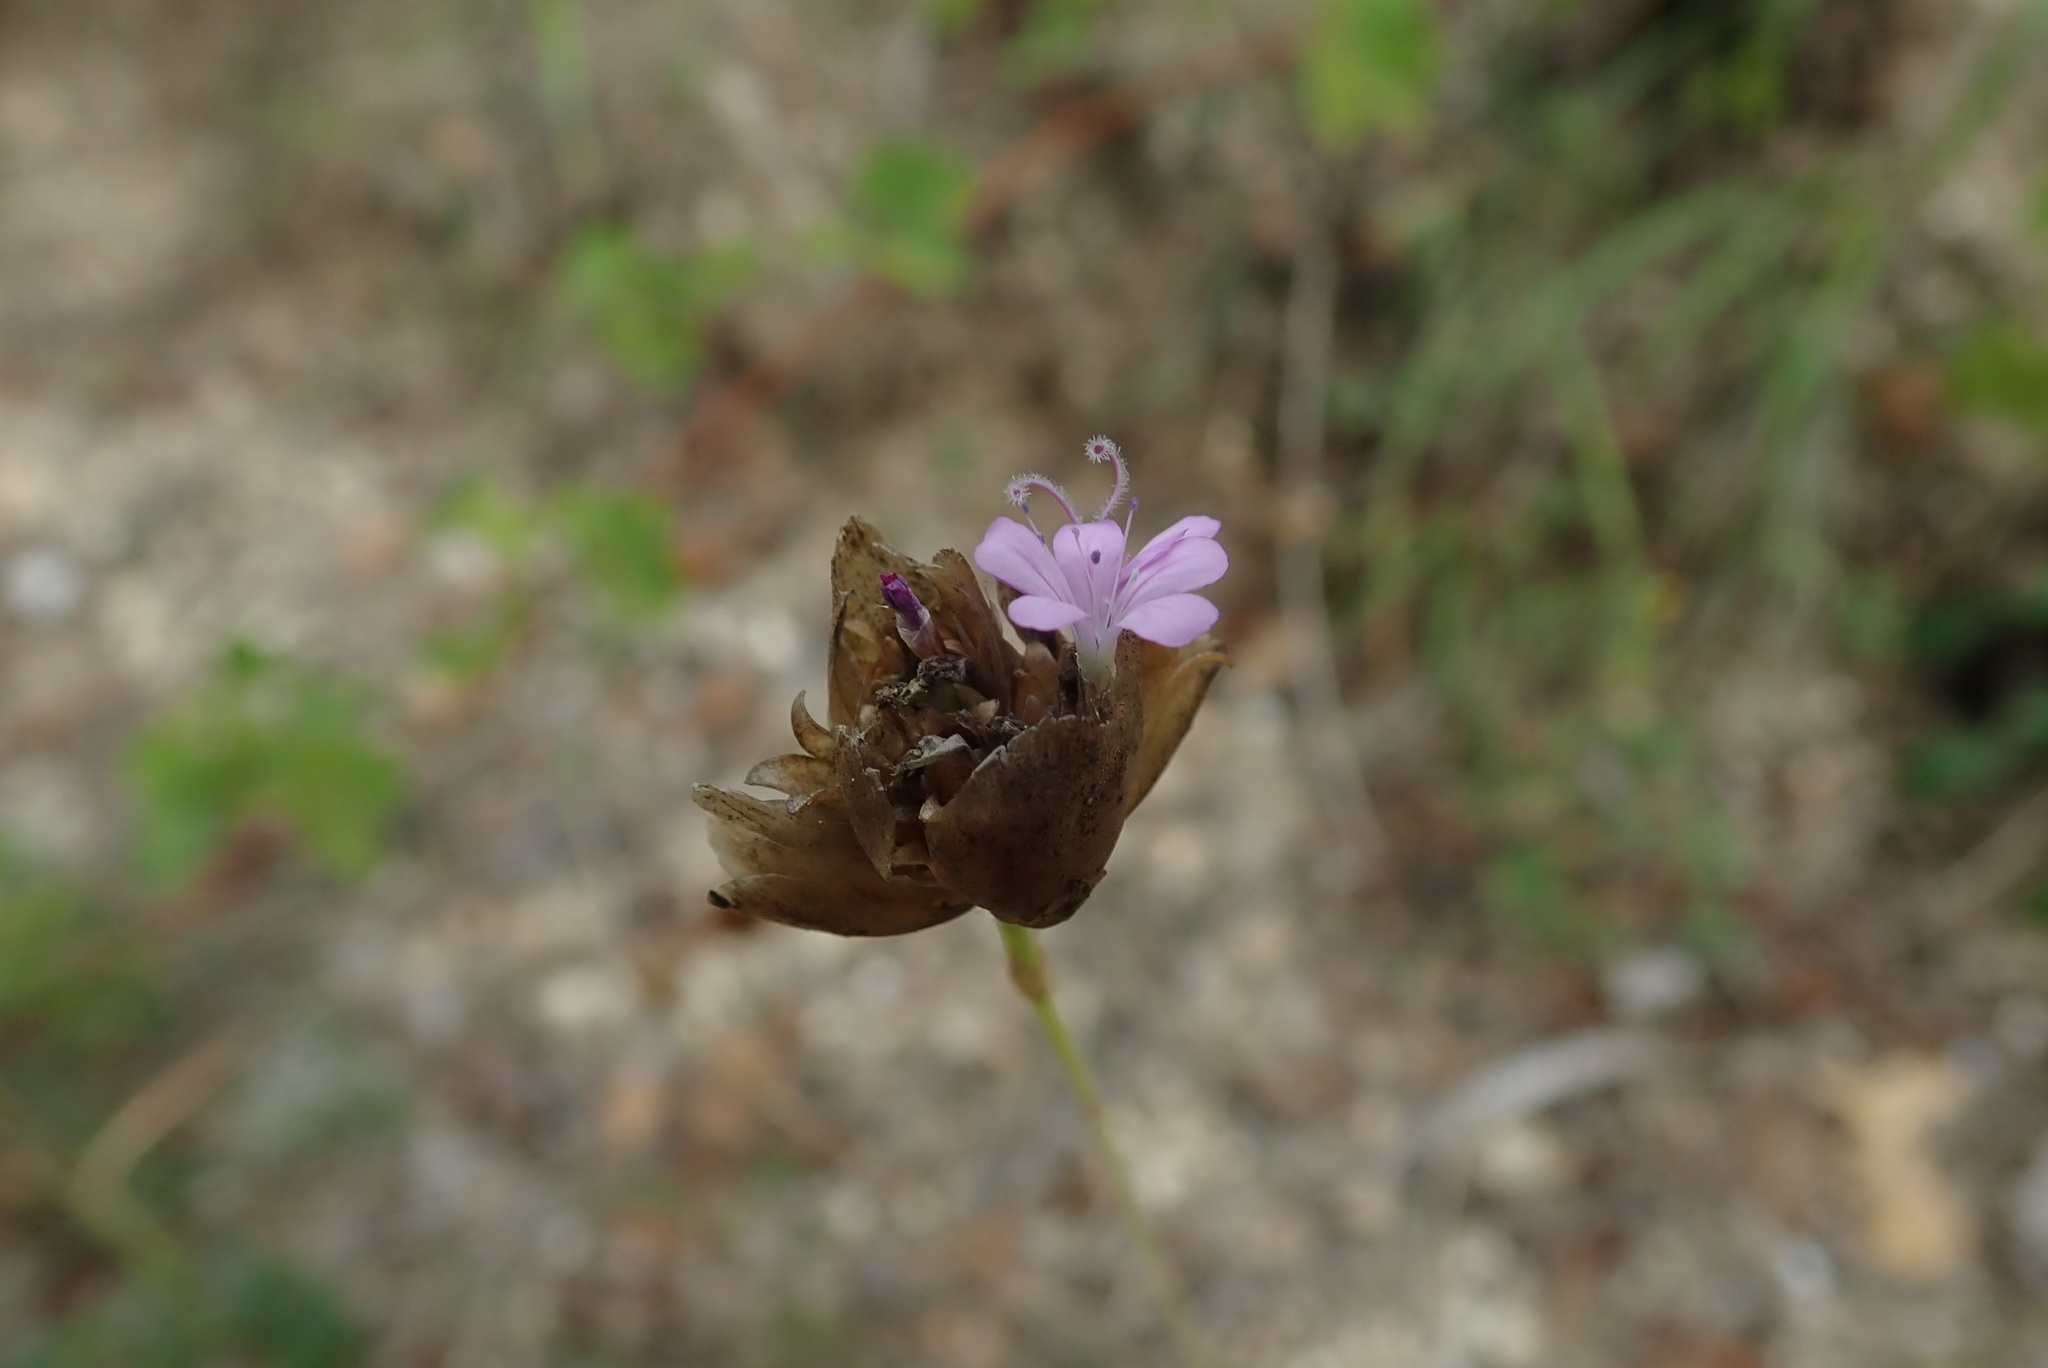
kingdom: Plantae
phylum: Tracheophyta
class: Magnoliopsida
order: Caryophyllales
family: Caryophyllaceae
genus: Petrorhagia
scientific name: Petrorhagia prolifera
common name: Proliferous pink
